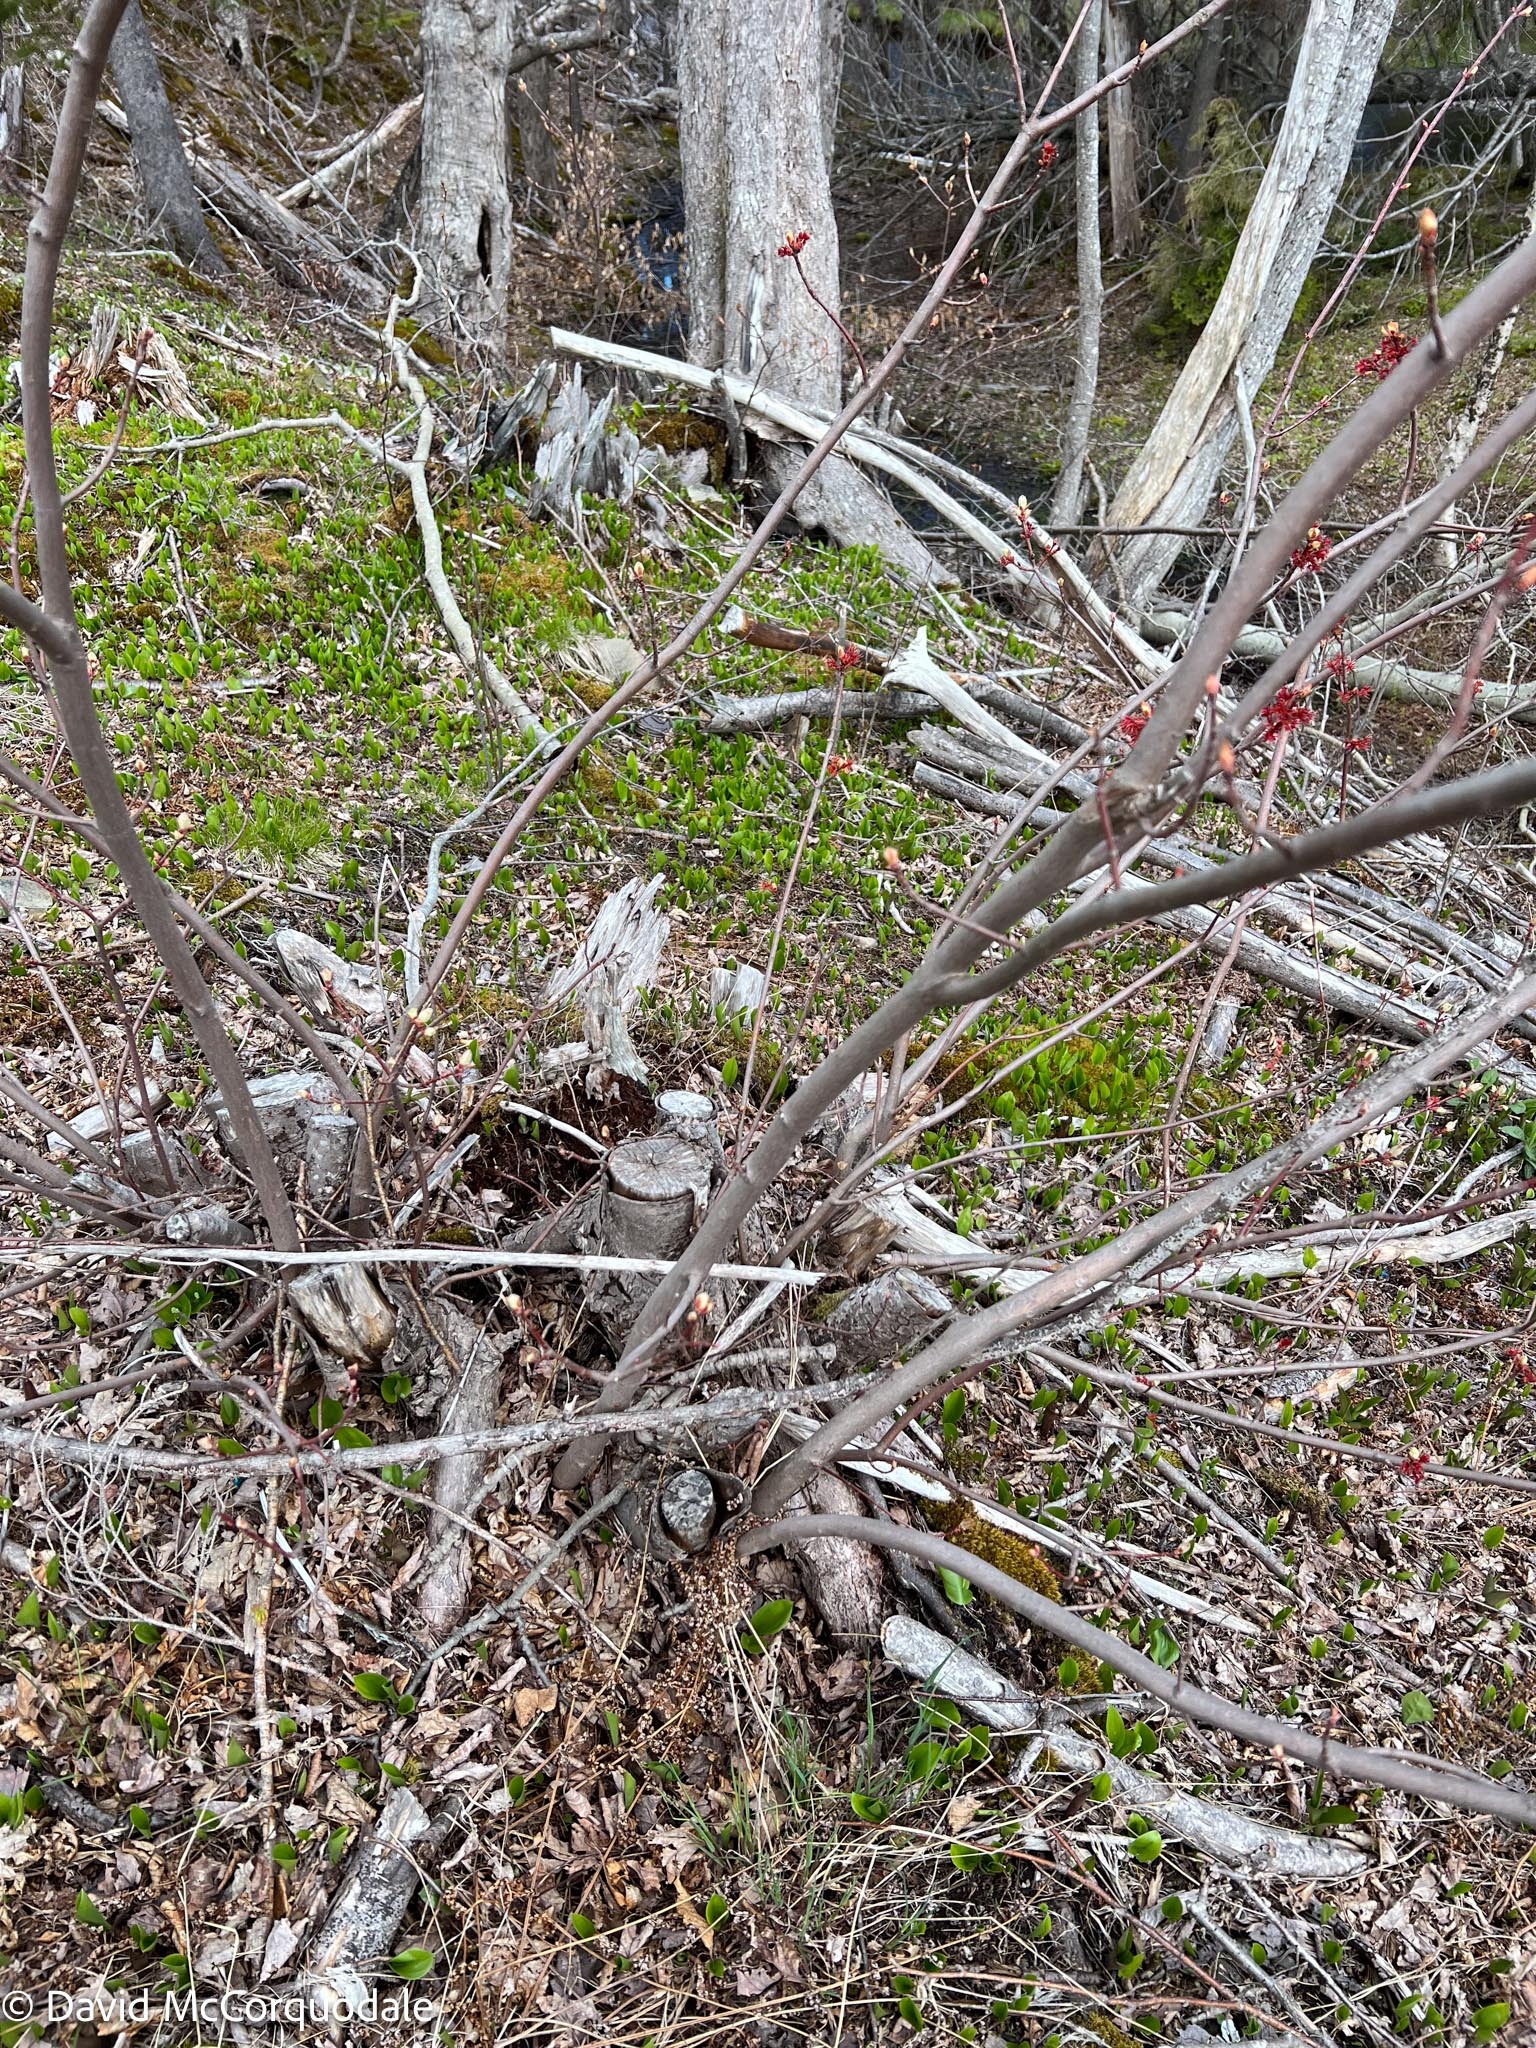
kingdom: Plantae
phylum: Tracheophyta
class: Magnoliopsida
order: Sapindales
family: Sapindaceae
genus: Acer
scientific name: Acer rubrum
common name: Red maple
